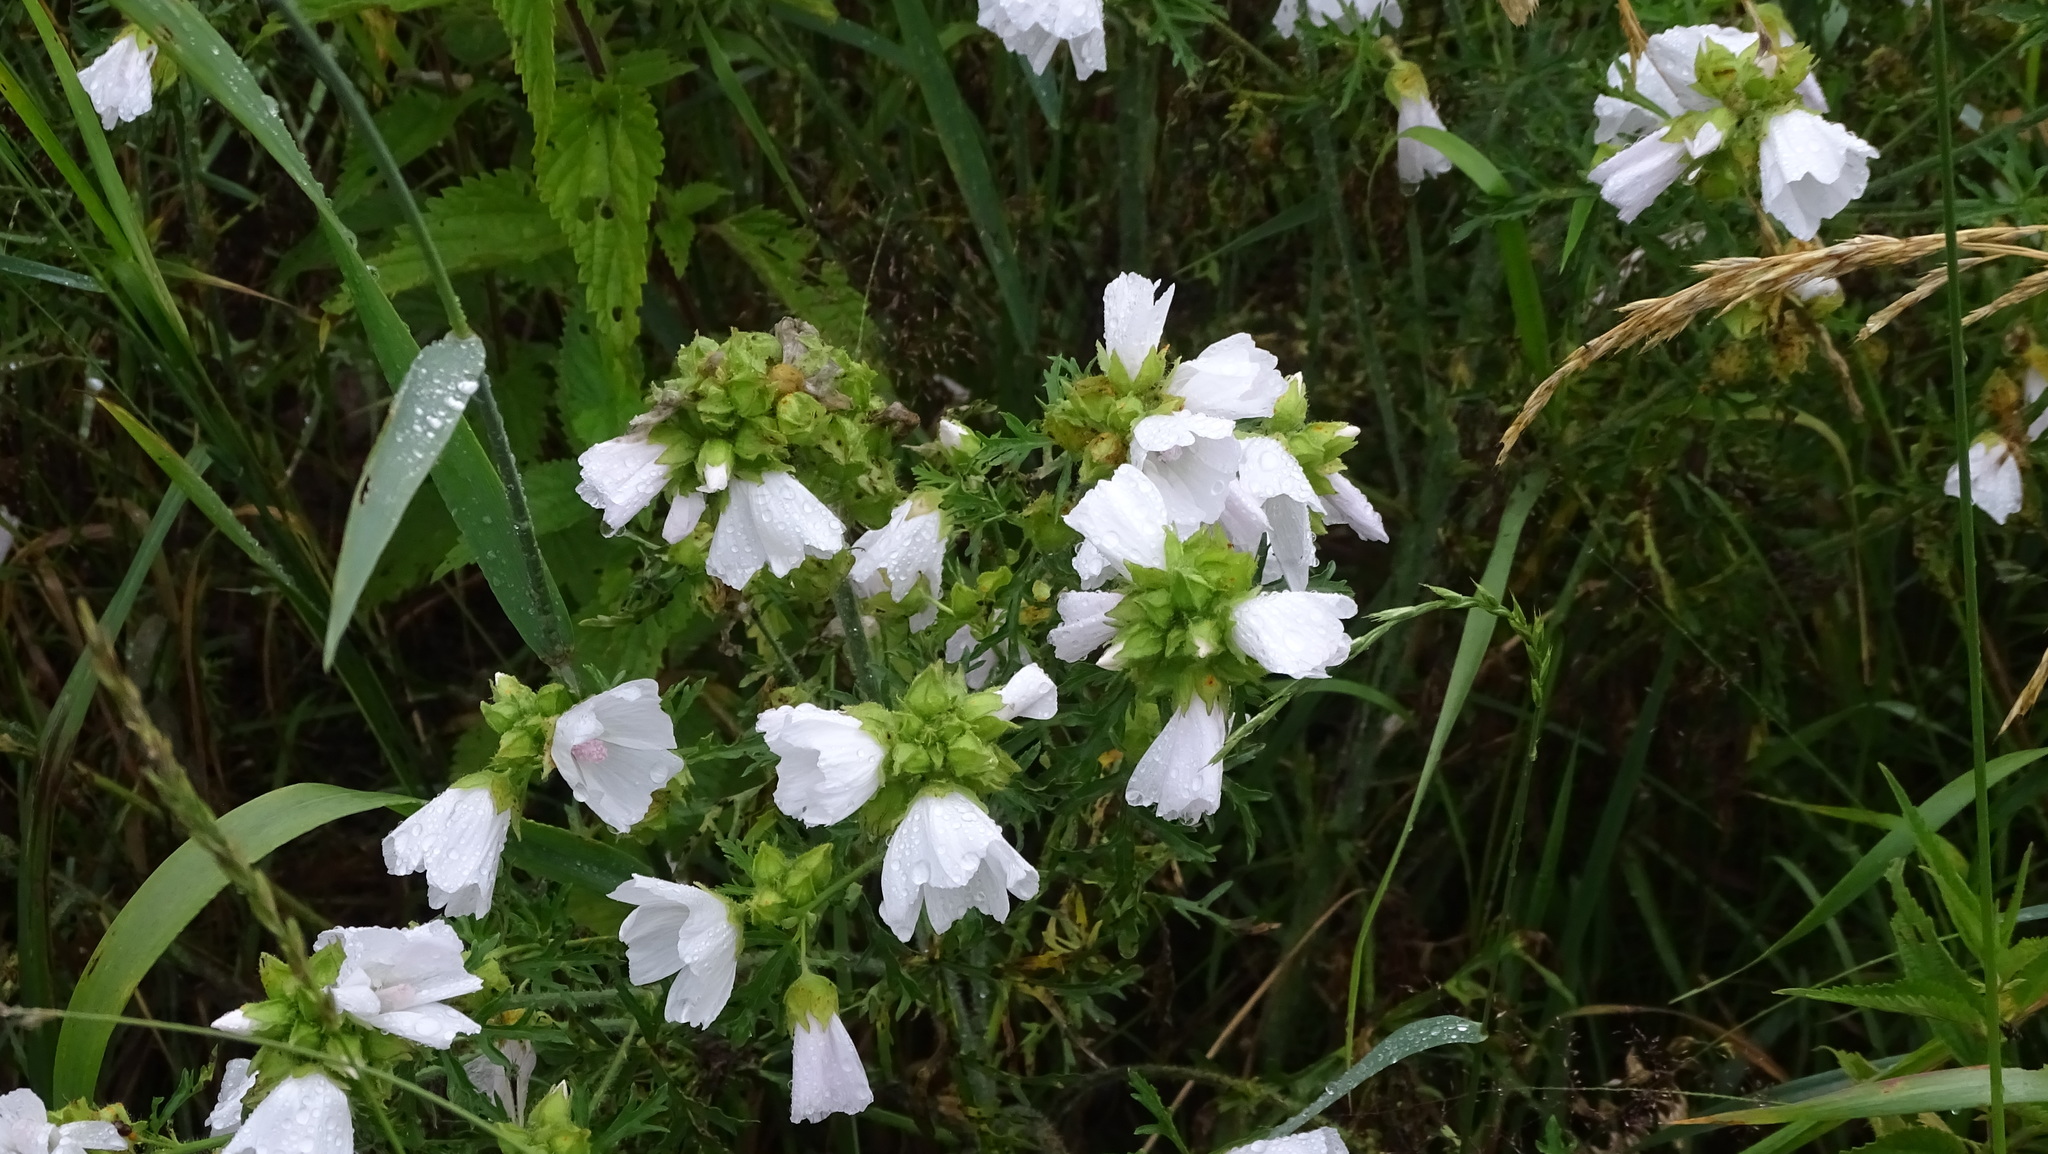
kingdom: Plantae
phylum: Tracheophyta
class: Magnoliopsida
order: Malvales
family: Malvaceae
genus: Malva
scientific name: Malva moschata
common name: Musk mallow
